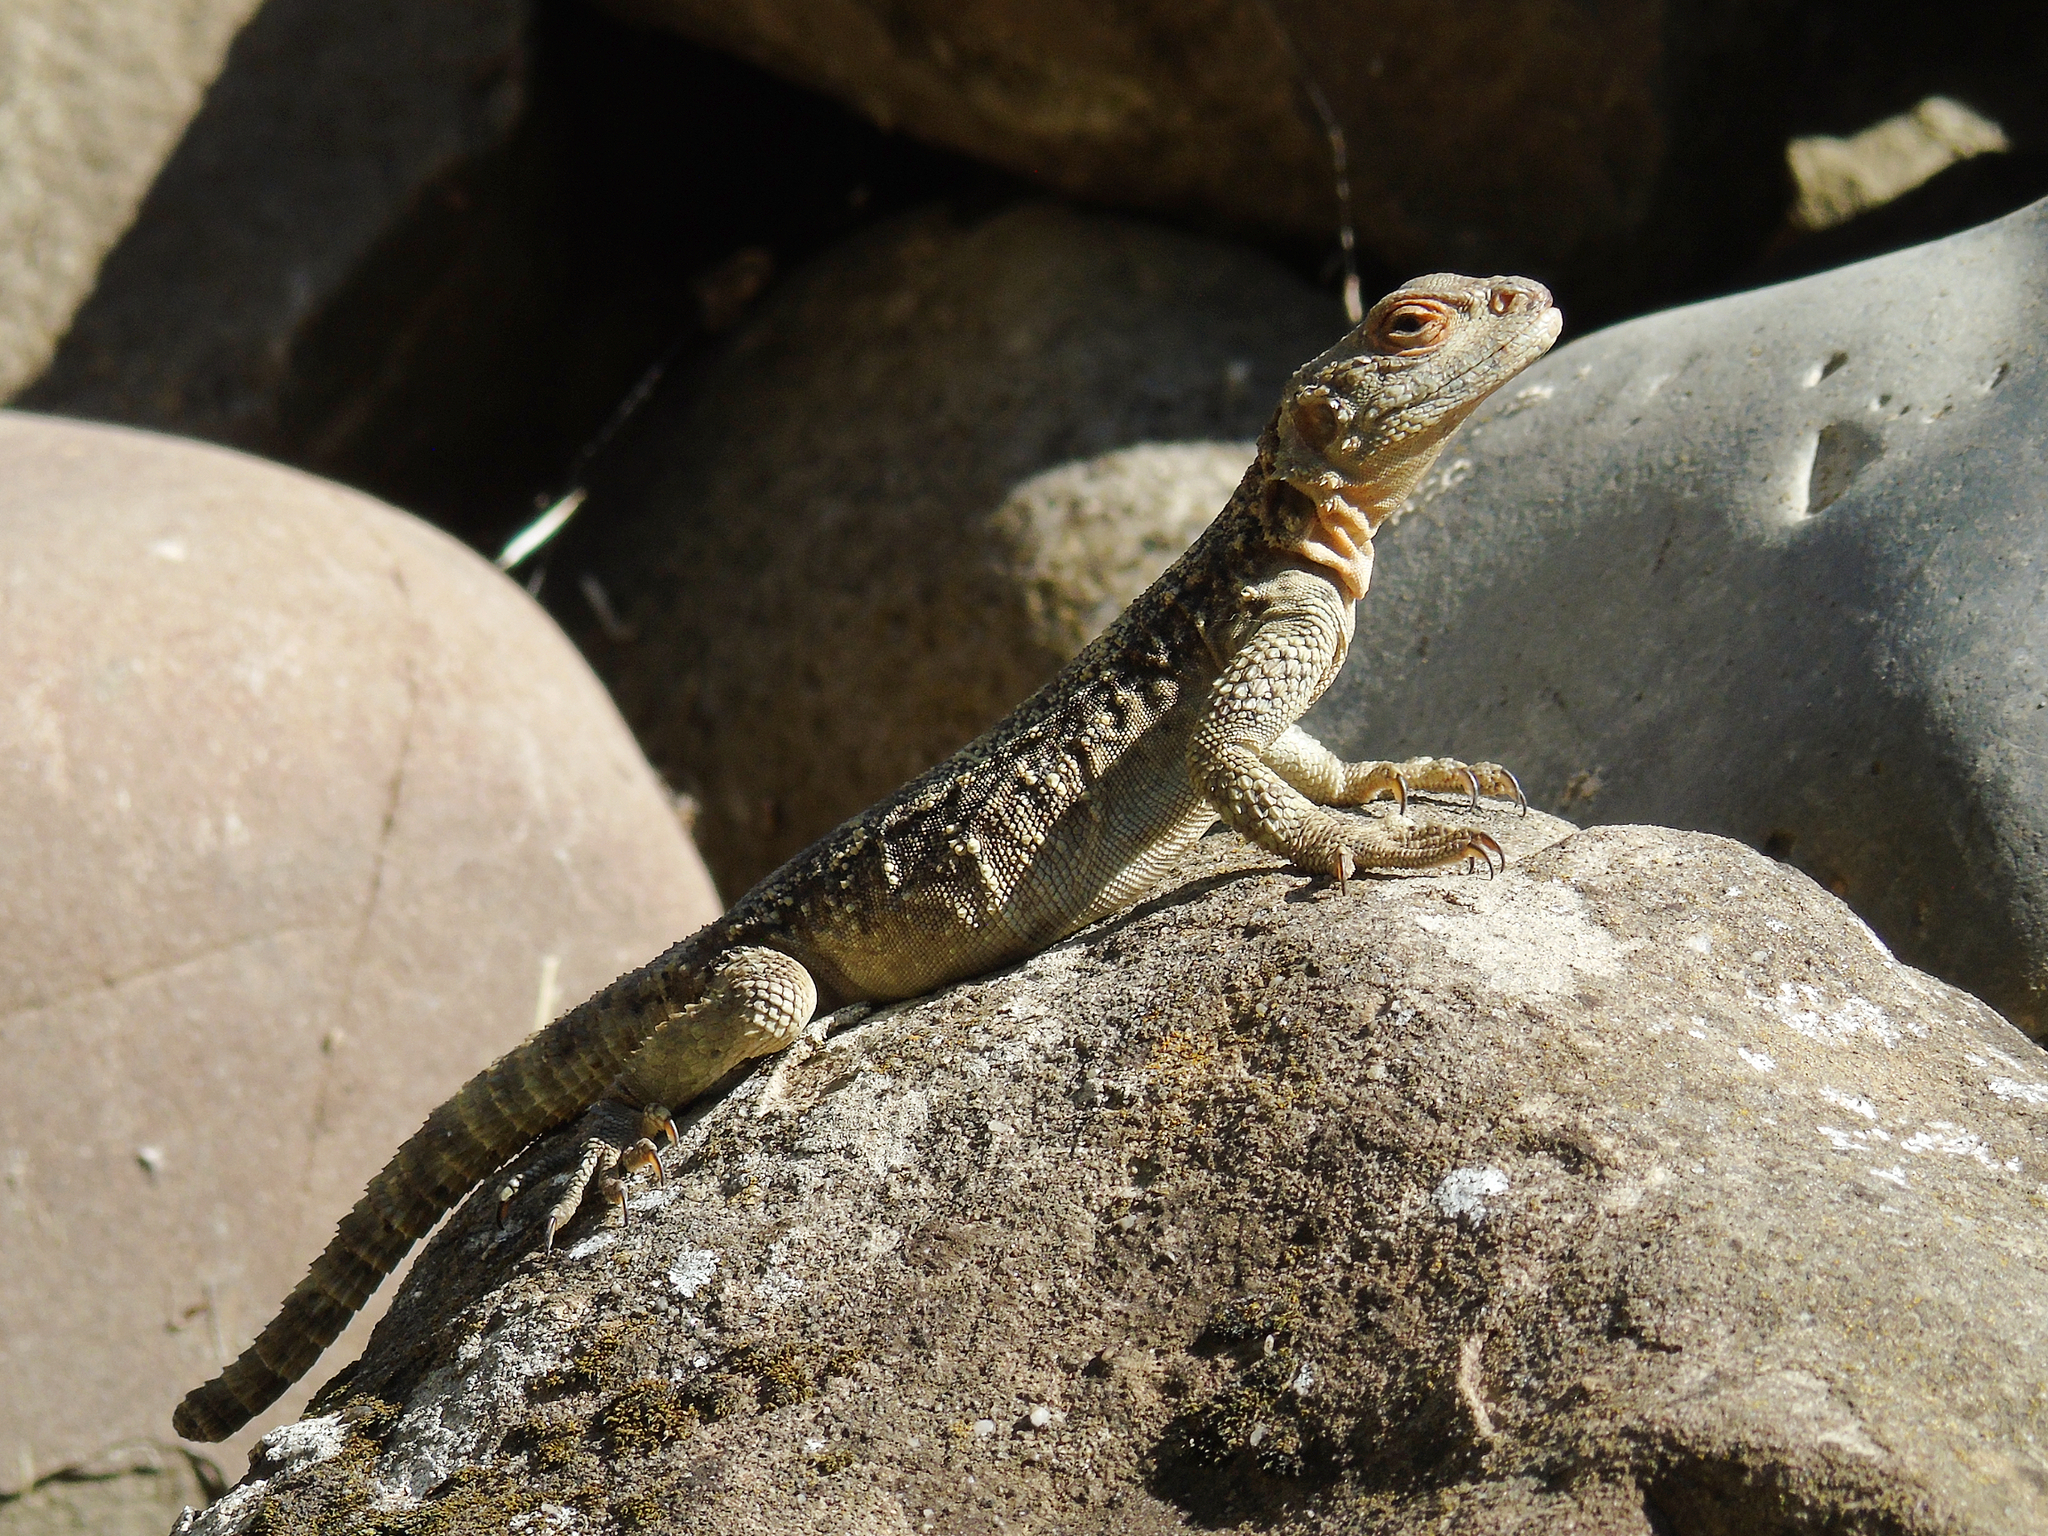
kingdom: Animalia
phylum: Chordata
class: Squamata
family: Agamidae
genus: Paralaudakia
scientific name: Paralaudakia caucasia
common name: Caucasian agama
